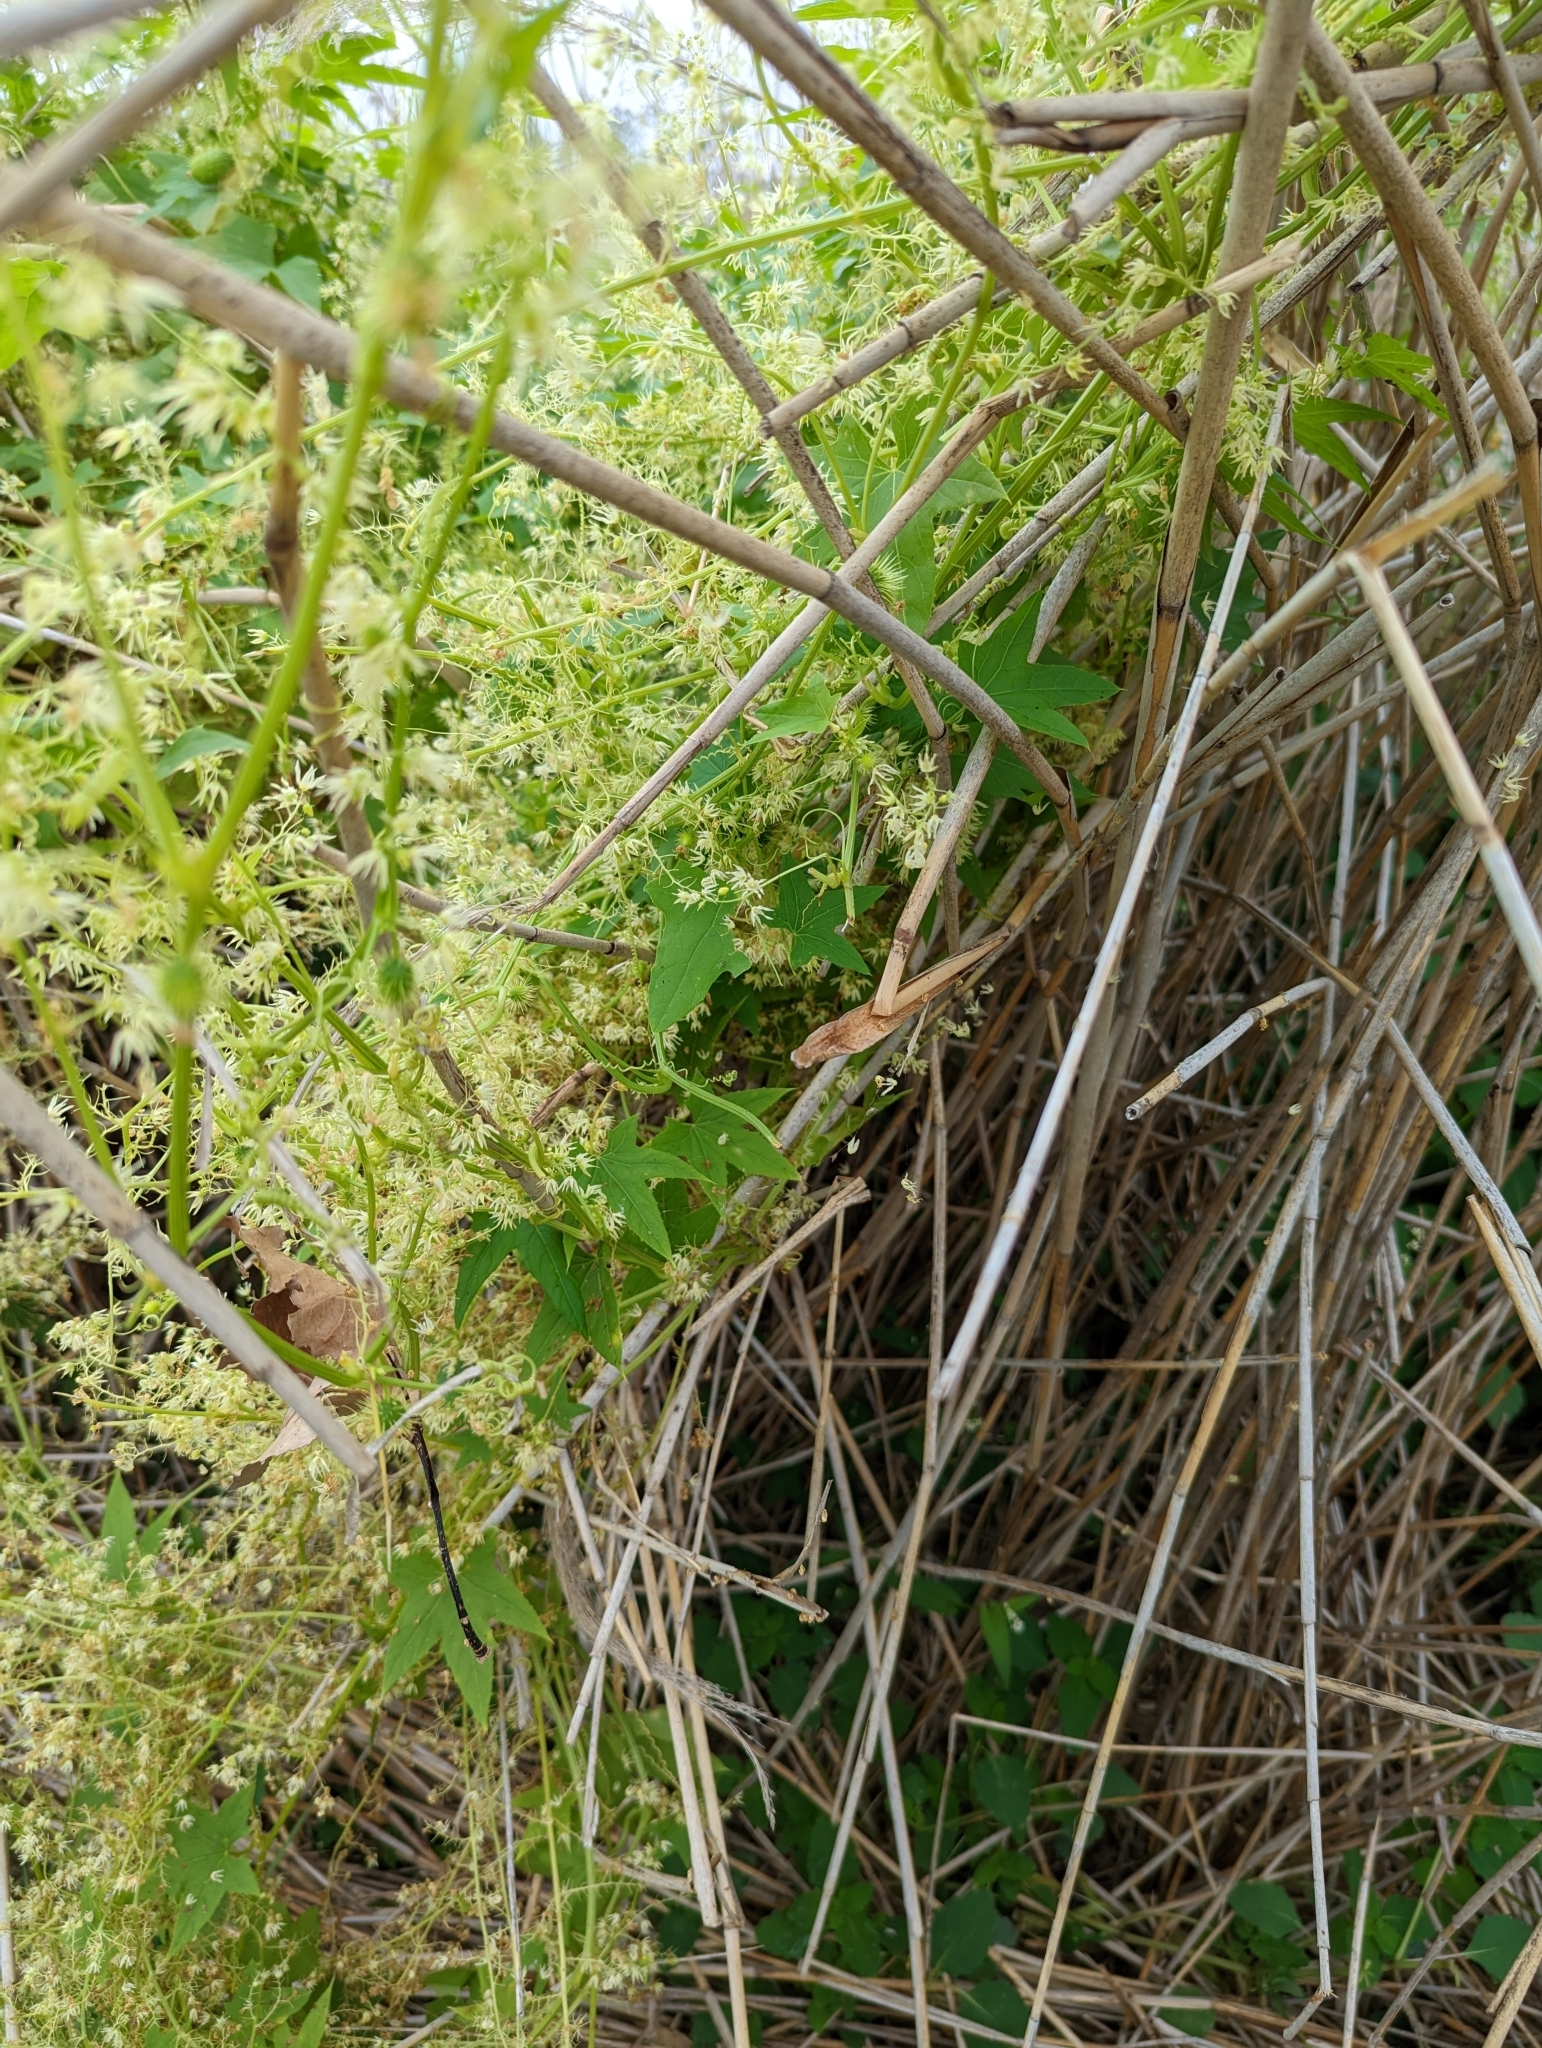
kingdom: Plantae
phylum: Tracheophyta
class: Magnoliopsida
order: Cucurbitales
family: Cucurbitaceae
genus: Echinocystis
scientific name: Echinocystis lobata
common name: Wild cucumber
